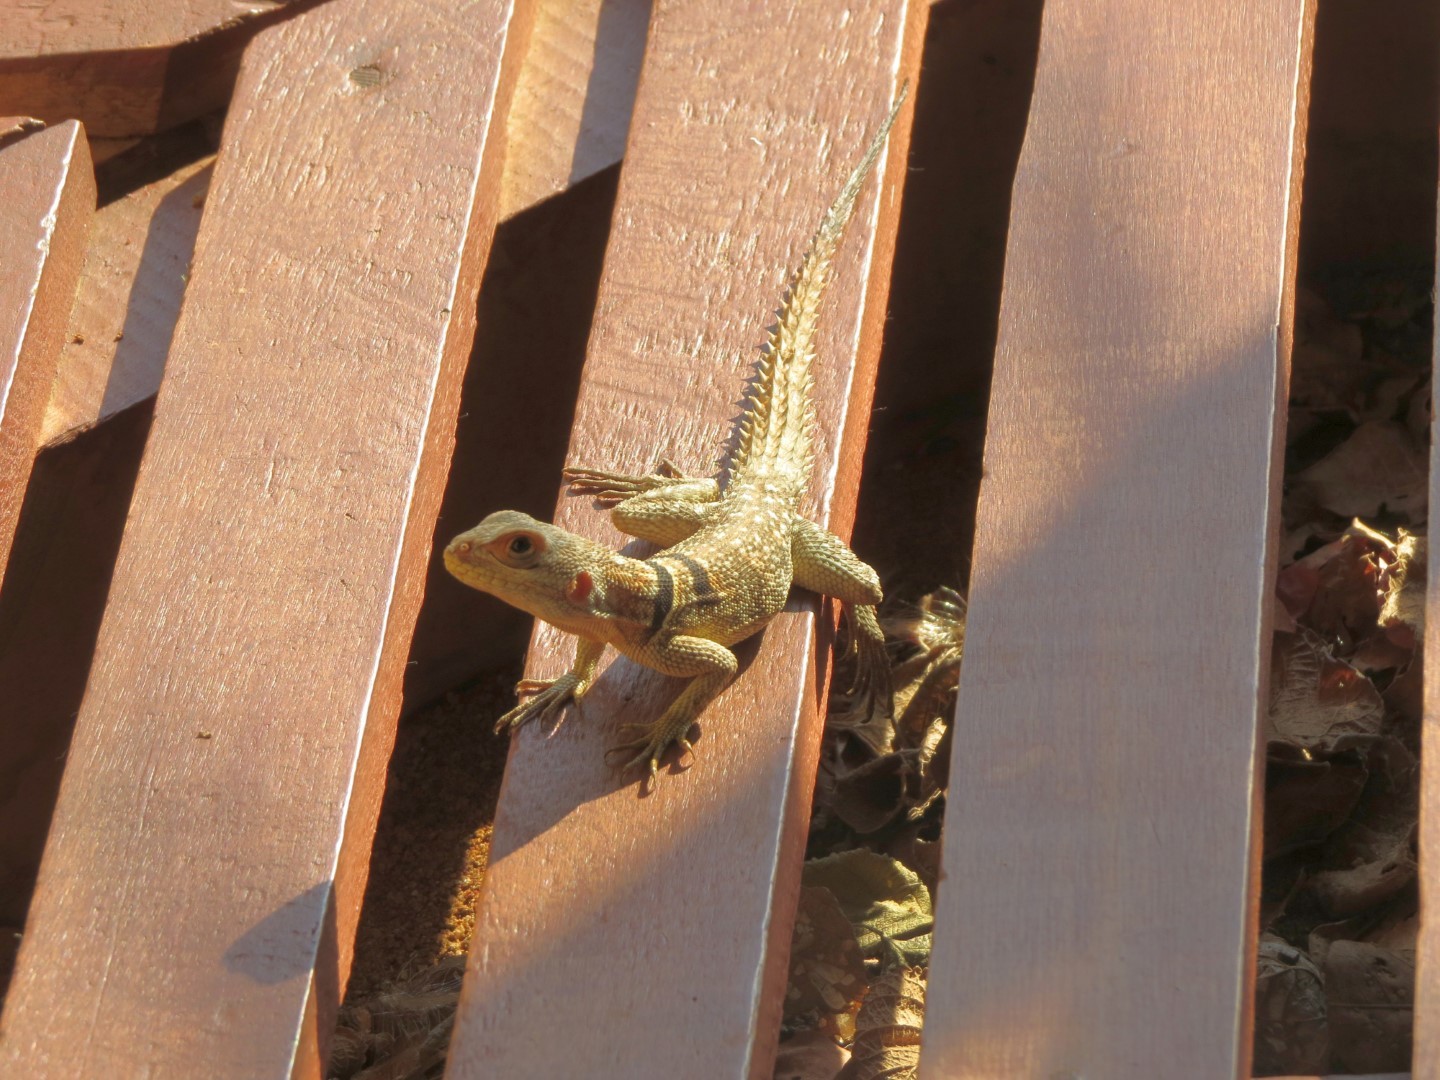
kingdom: Animalia
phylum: Chordata
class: Squamata
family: Opluridae
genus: Oplurus
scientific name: Oplurus cuvieri
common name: Cuvier's madagascar swift
